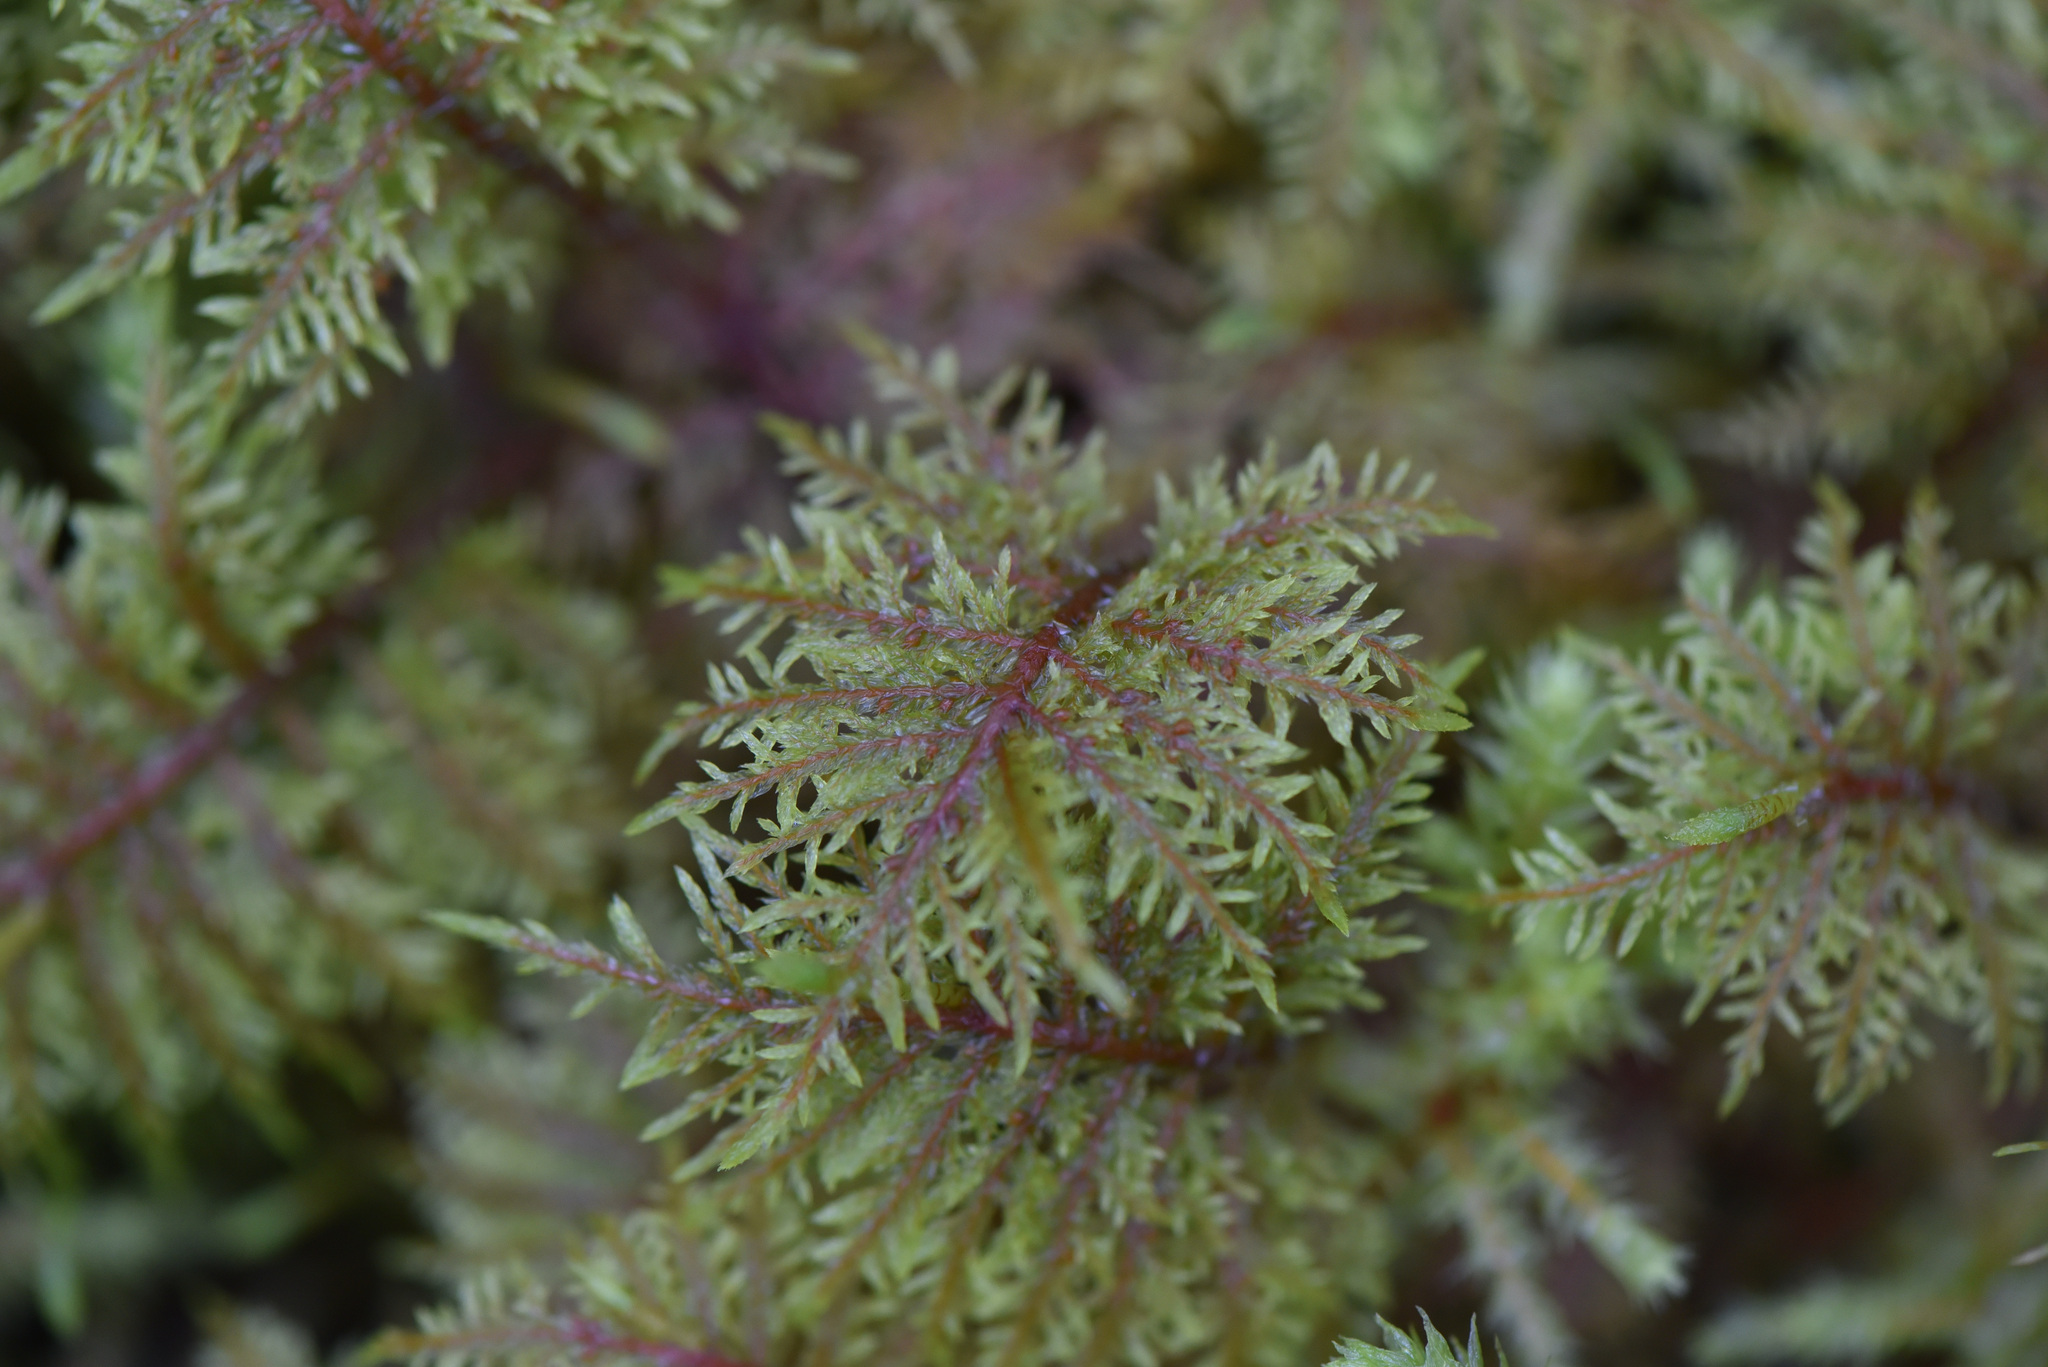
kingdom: Plantae
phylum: Bryophyta
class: Bryopsida
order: Hypnales
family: Hylocomiaceae
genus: Hylocomium
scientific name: Hylocomium splendens
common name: Stairstep moss
